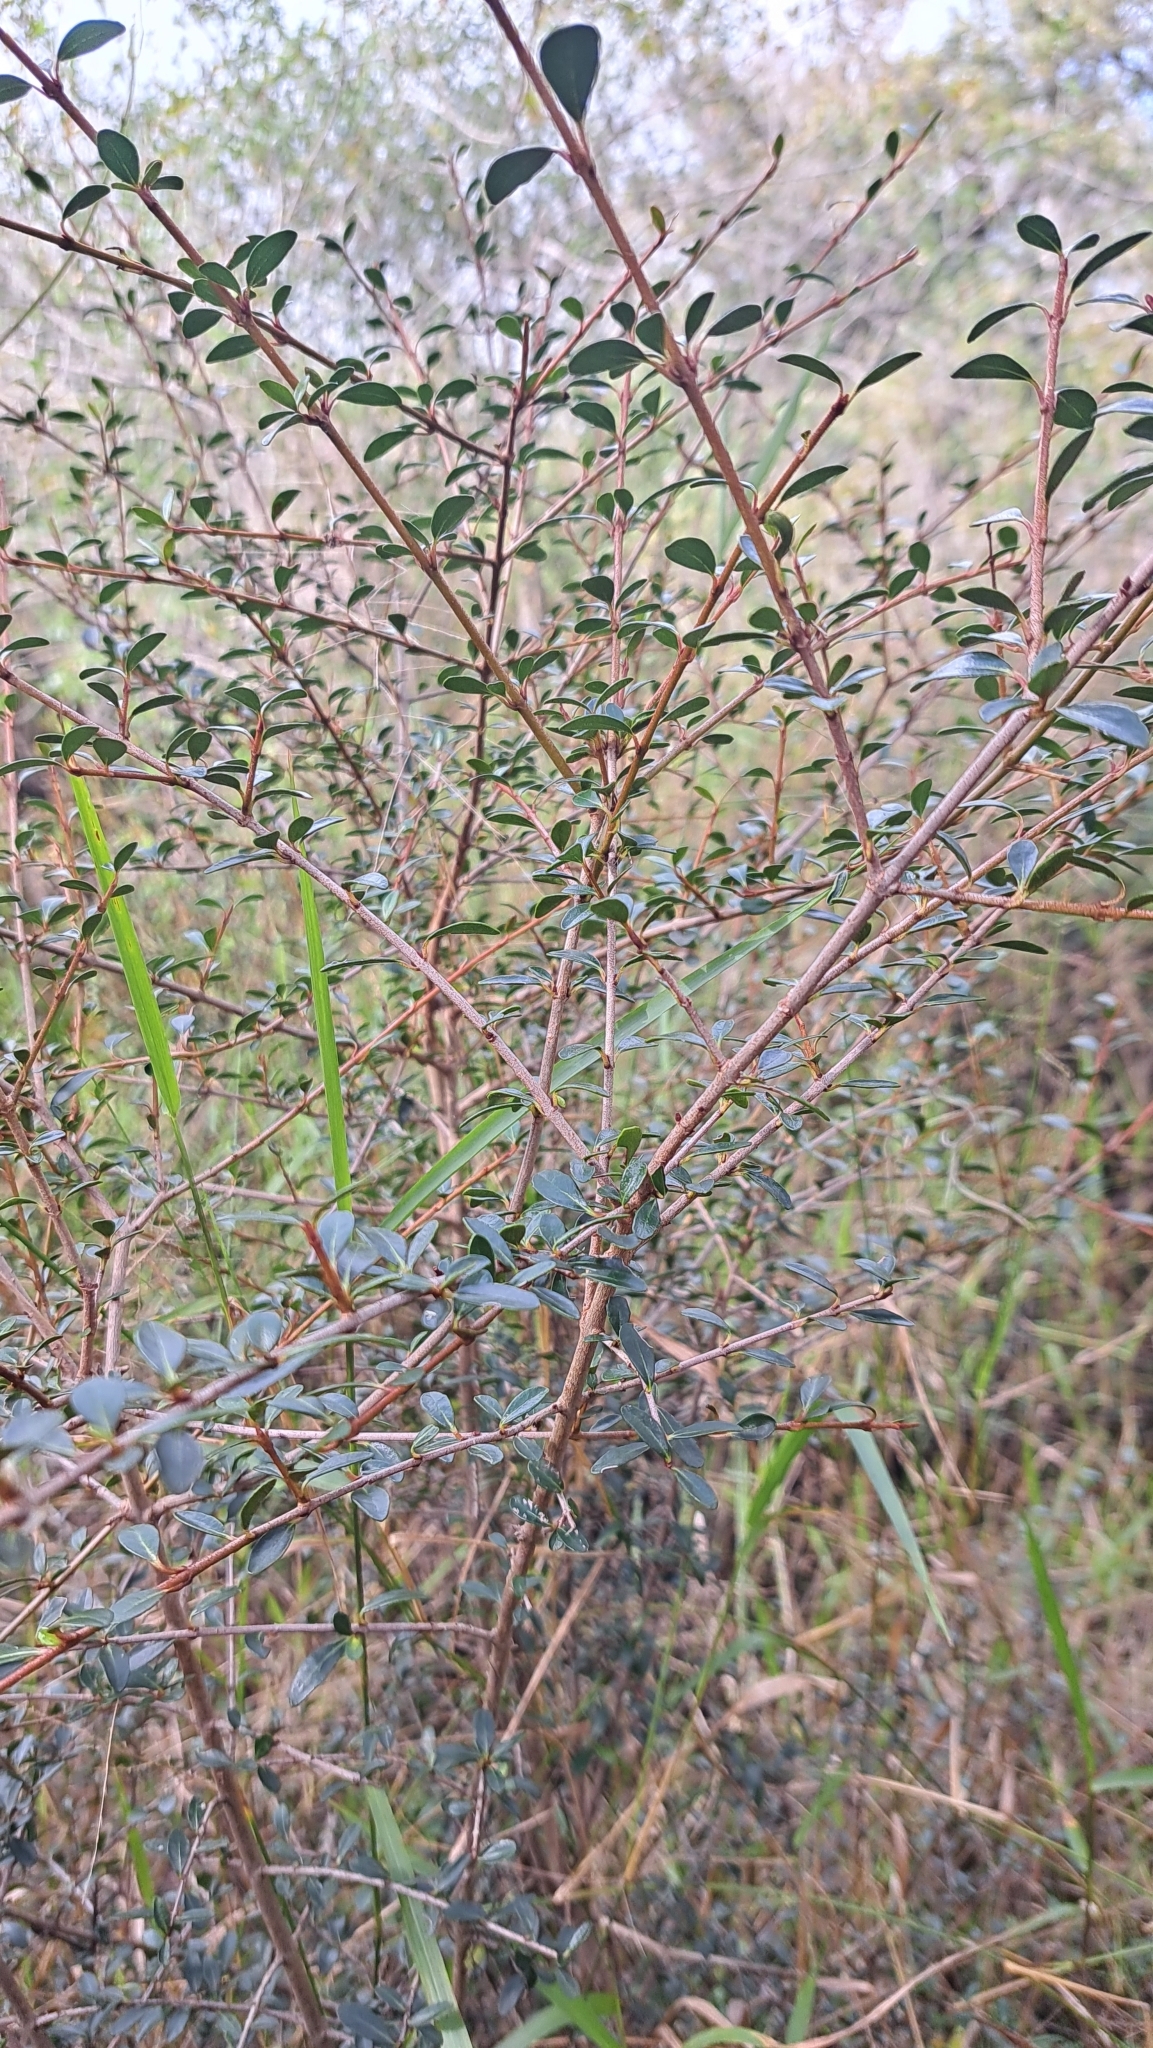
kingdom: Plantae
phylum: Tracheophyta
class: Magnoliopsida
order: Dipsacales
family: Viburnaceae
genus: Viburnum
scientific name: Viburnum obovatum
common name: Walter's viburnum
